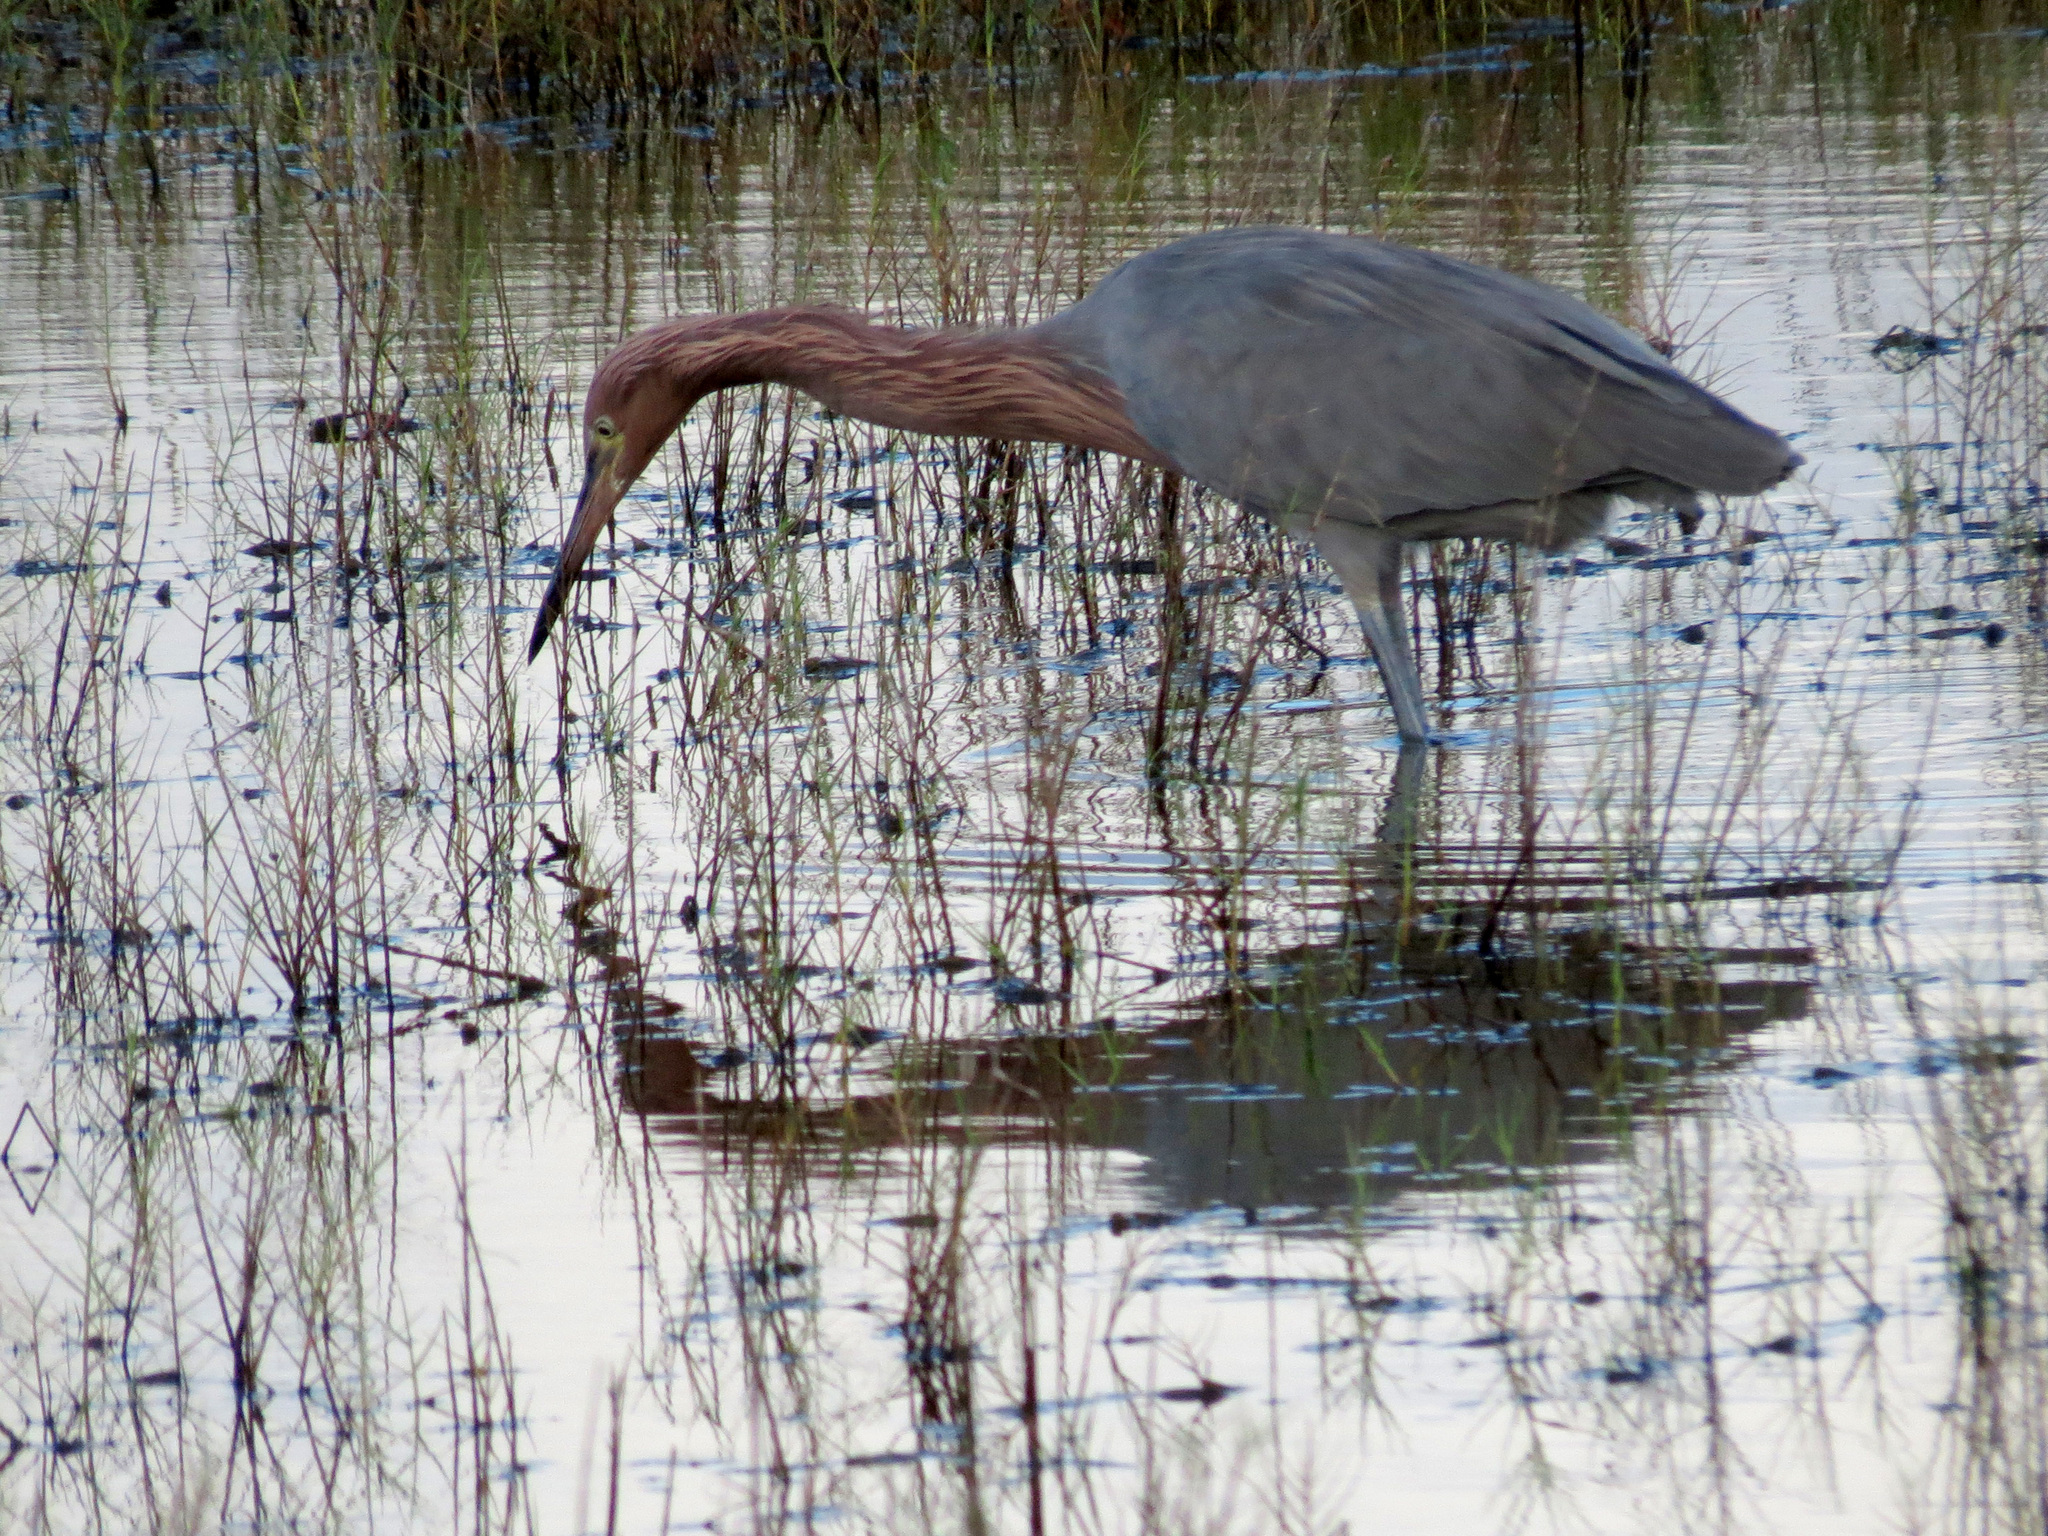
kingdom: Animalia
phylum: Chordata
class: Aves
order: Pelecaniformes
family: Ardeidae
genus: Egretta
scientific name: Egretta rufescens
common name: Reddish egret
